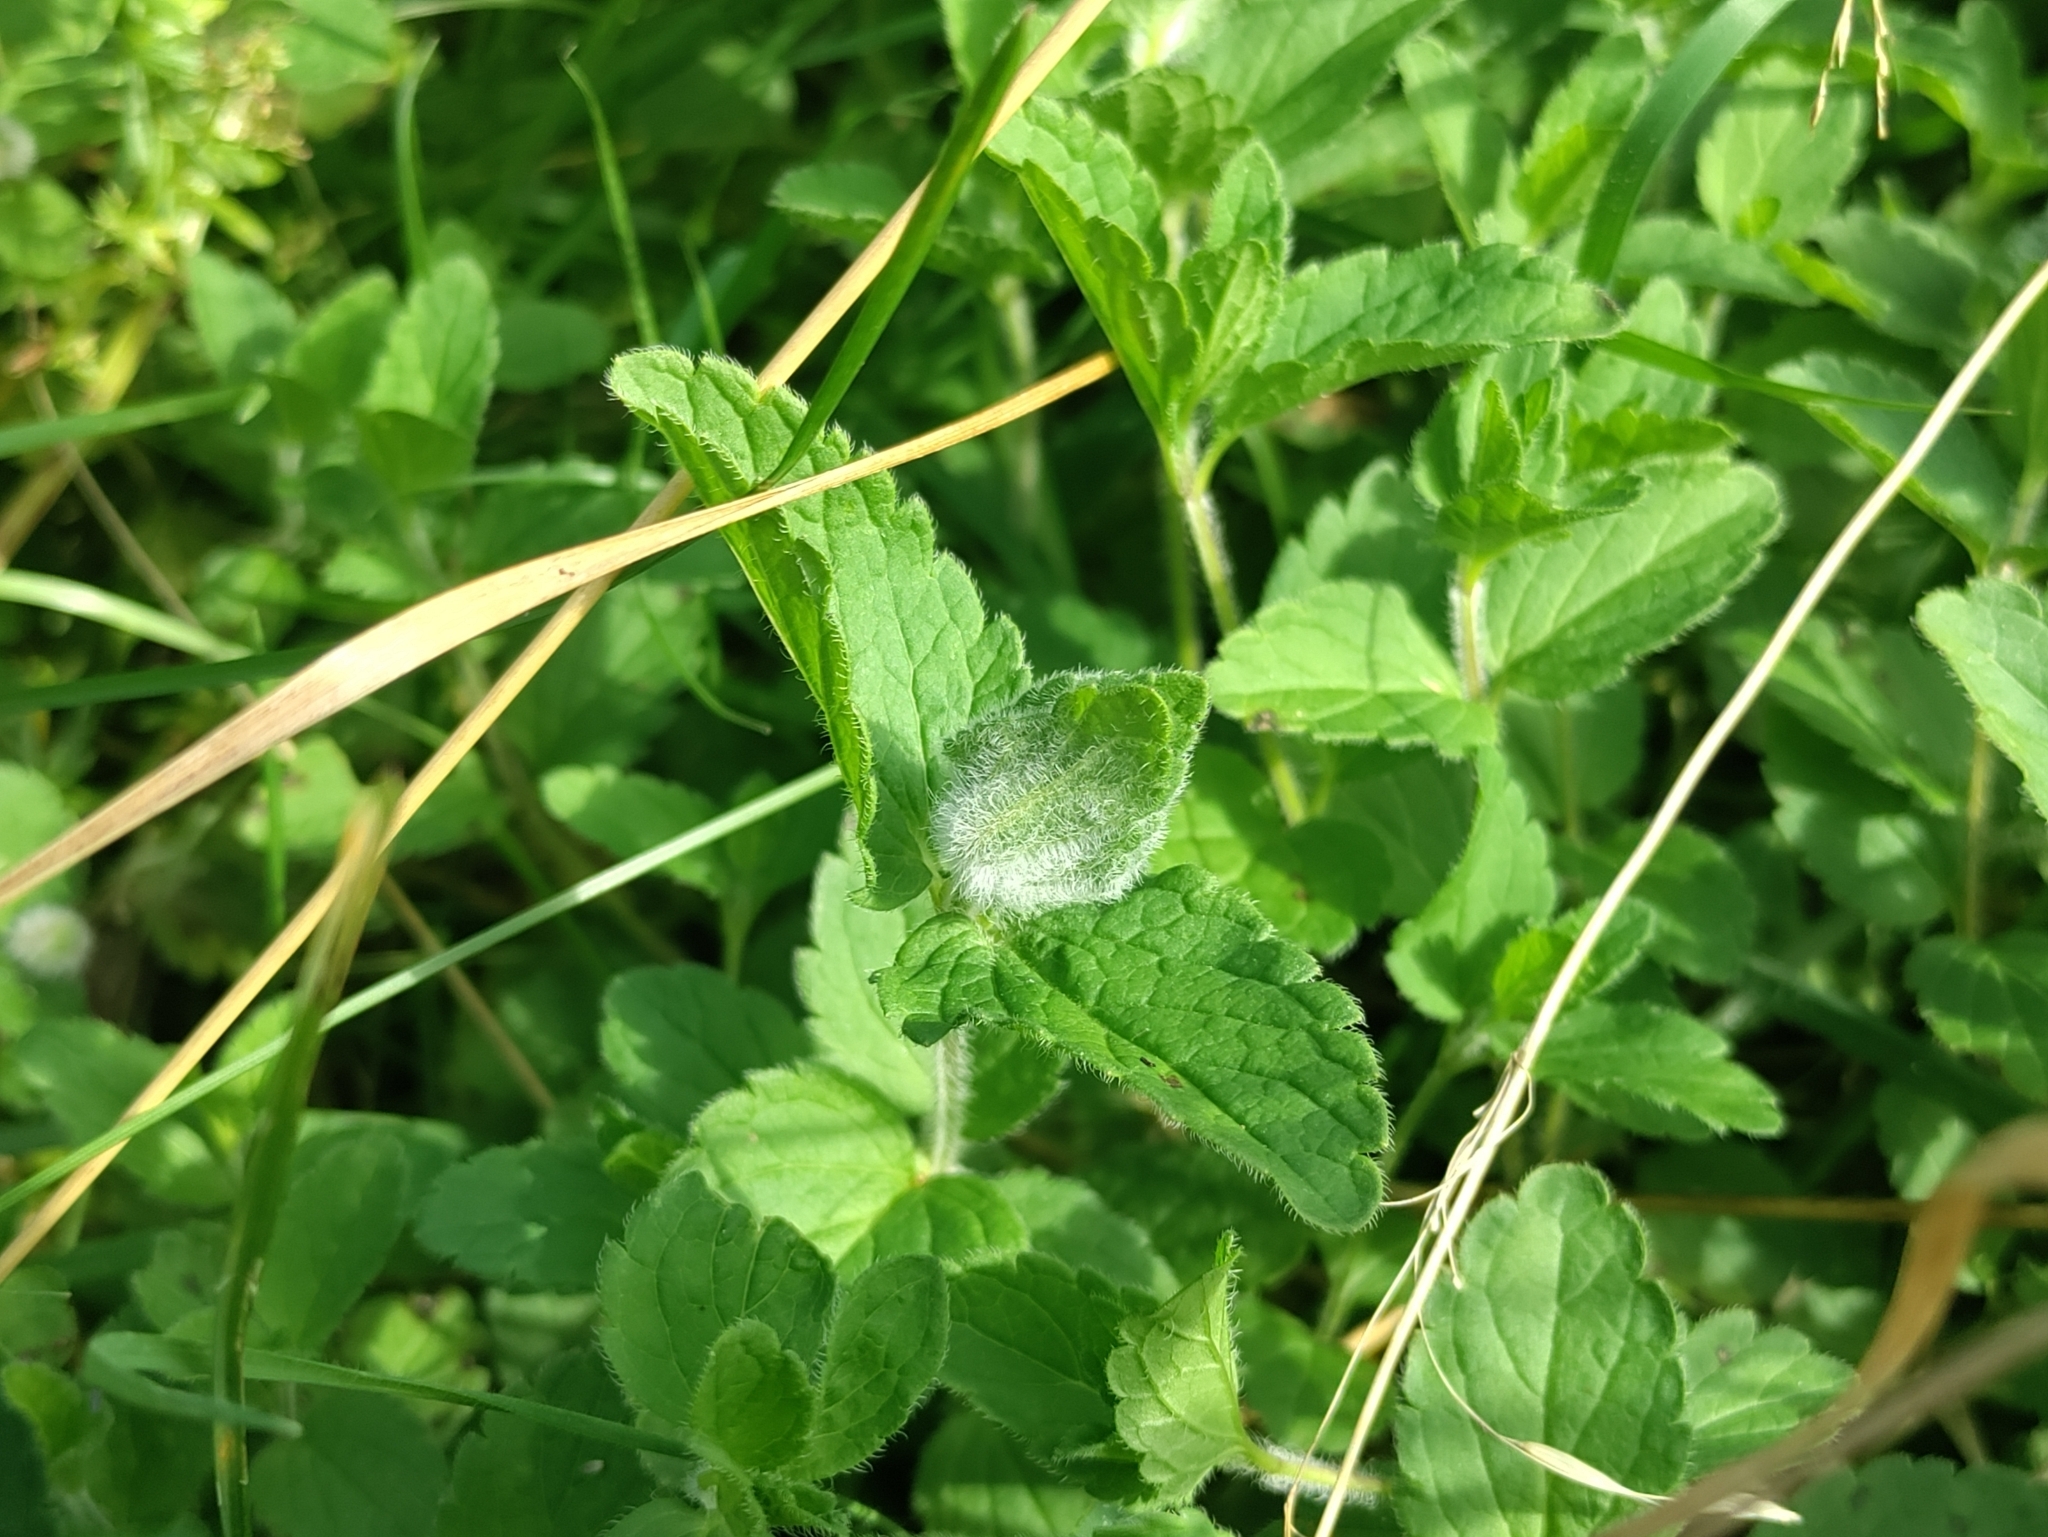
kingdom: Animalia
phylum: Arthropoda
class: Insecta
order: Diptera
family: Cecidomyiidae
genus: Jaapiella
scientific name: Jaapiella veronicae
